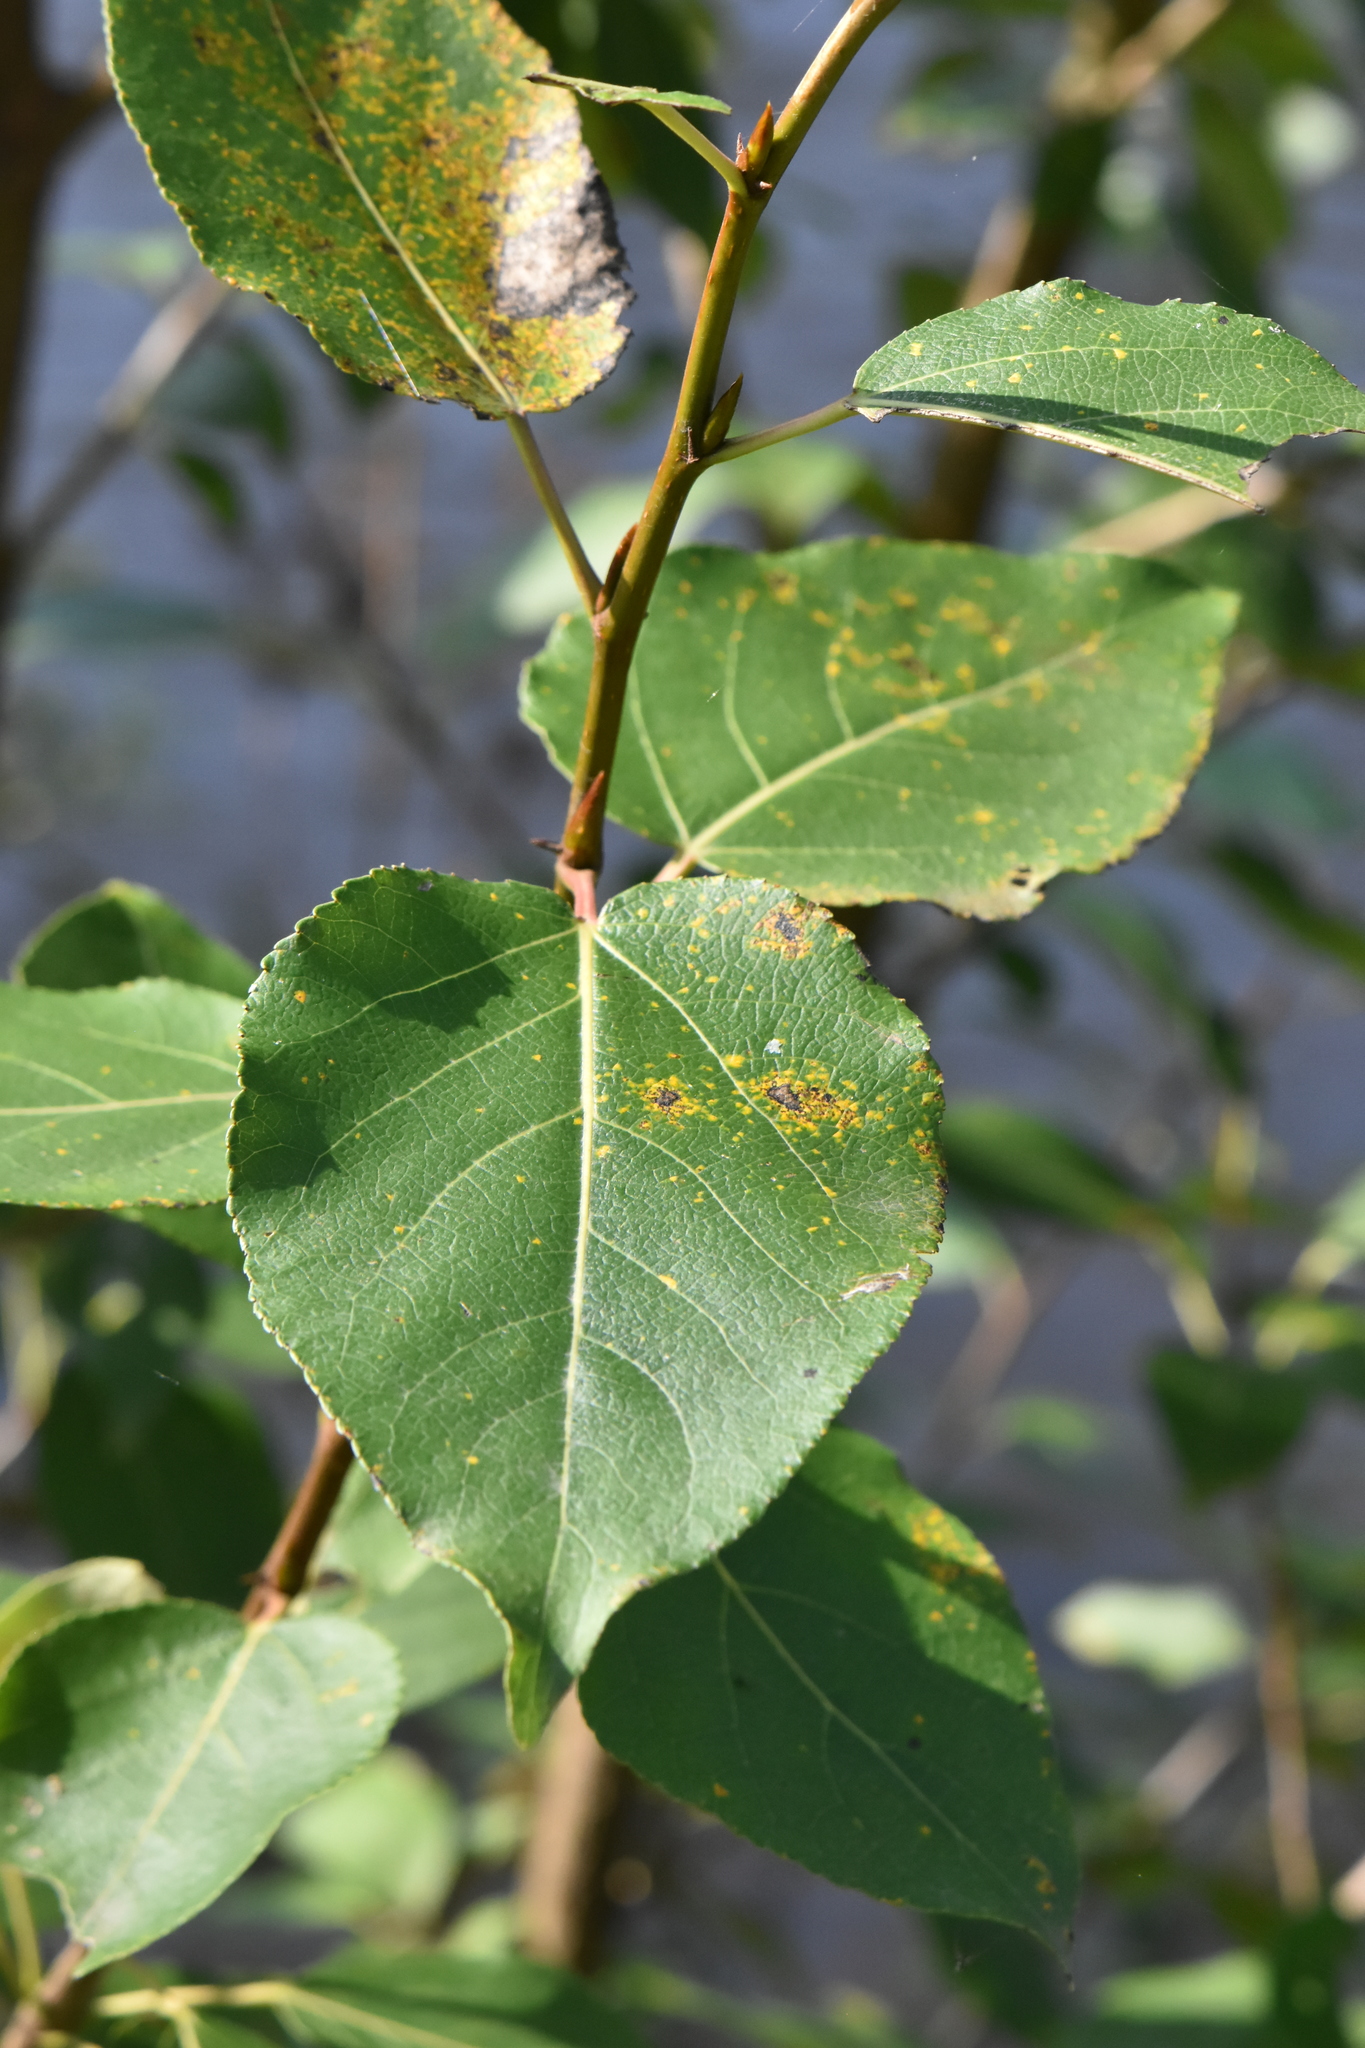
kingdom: Plantae
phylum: Tracheophyta
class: Magnoliopsida
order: Malpighiales
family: Salicaceae
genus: Populus
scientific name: Populus
